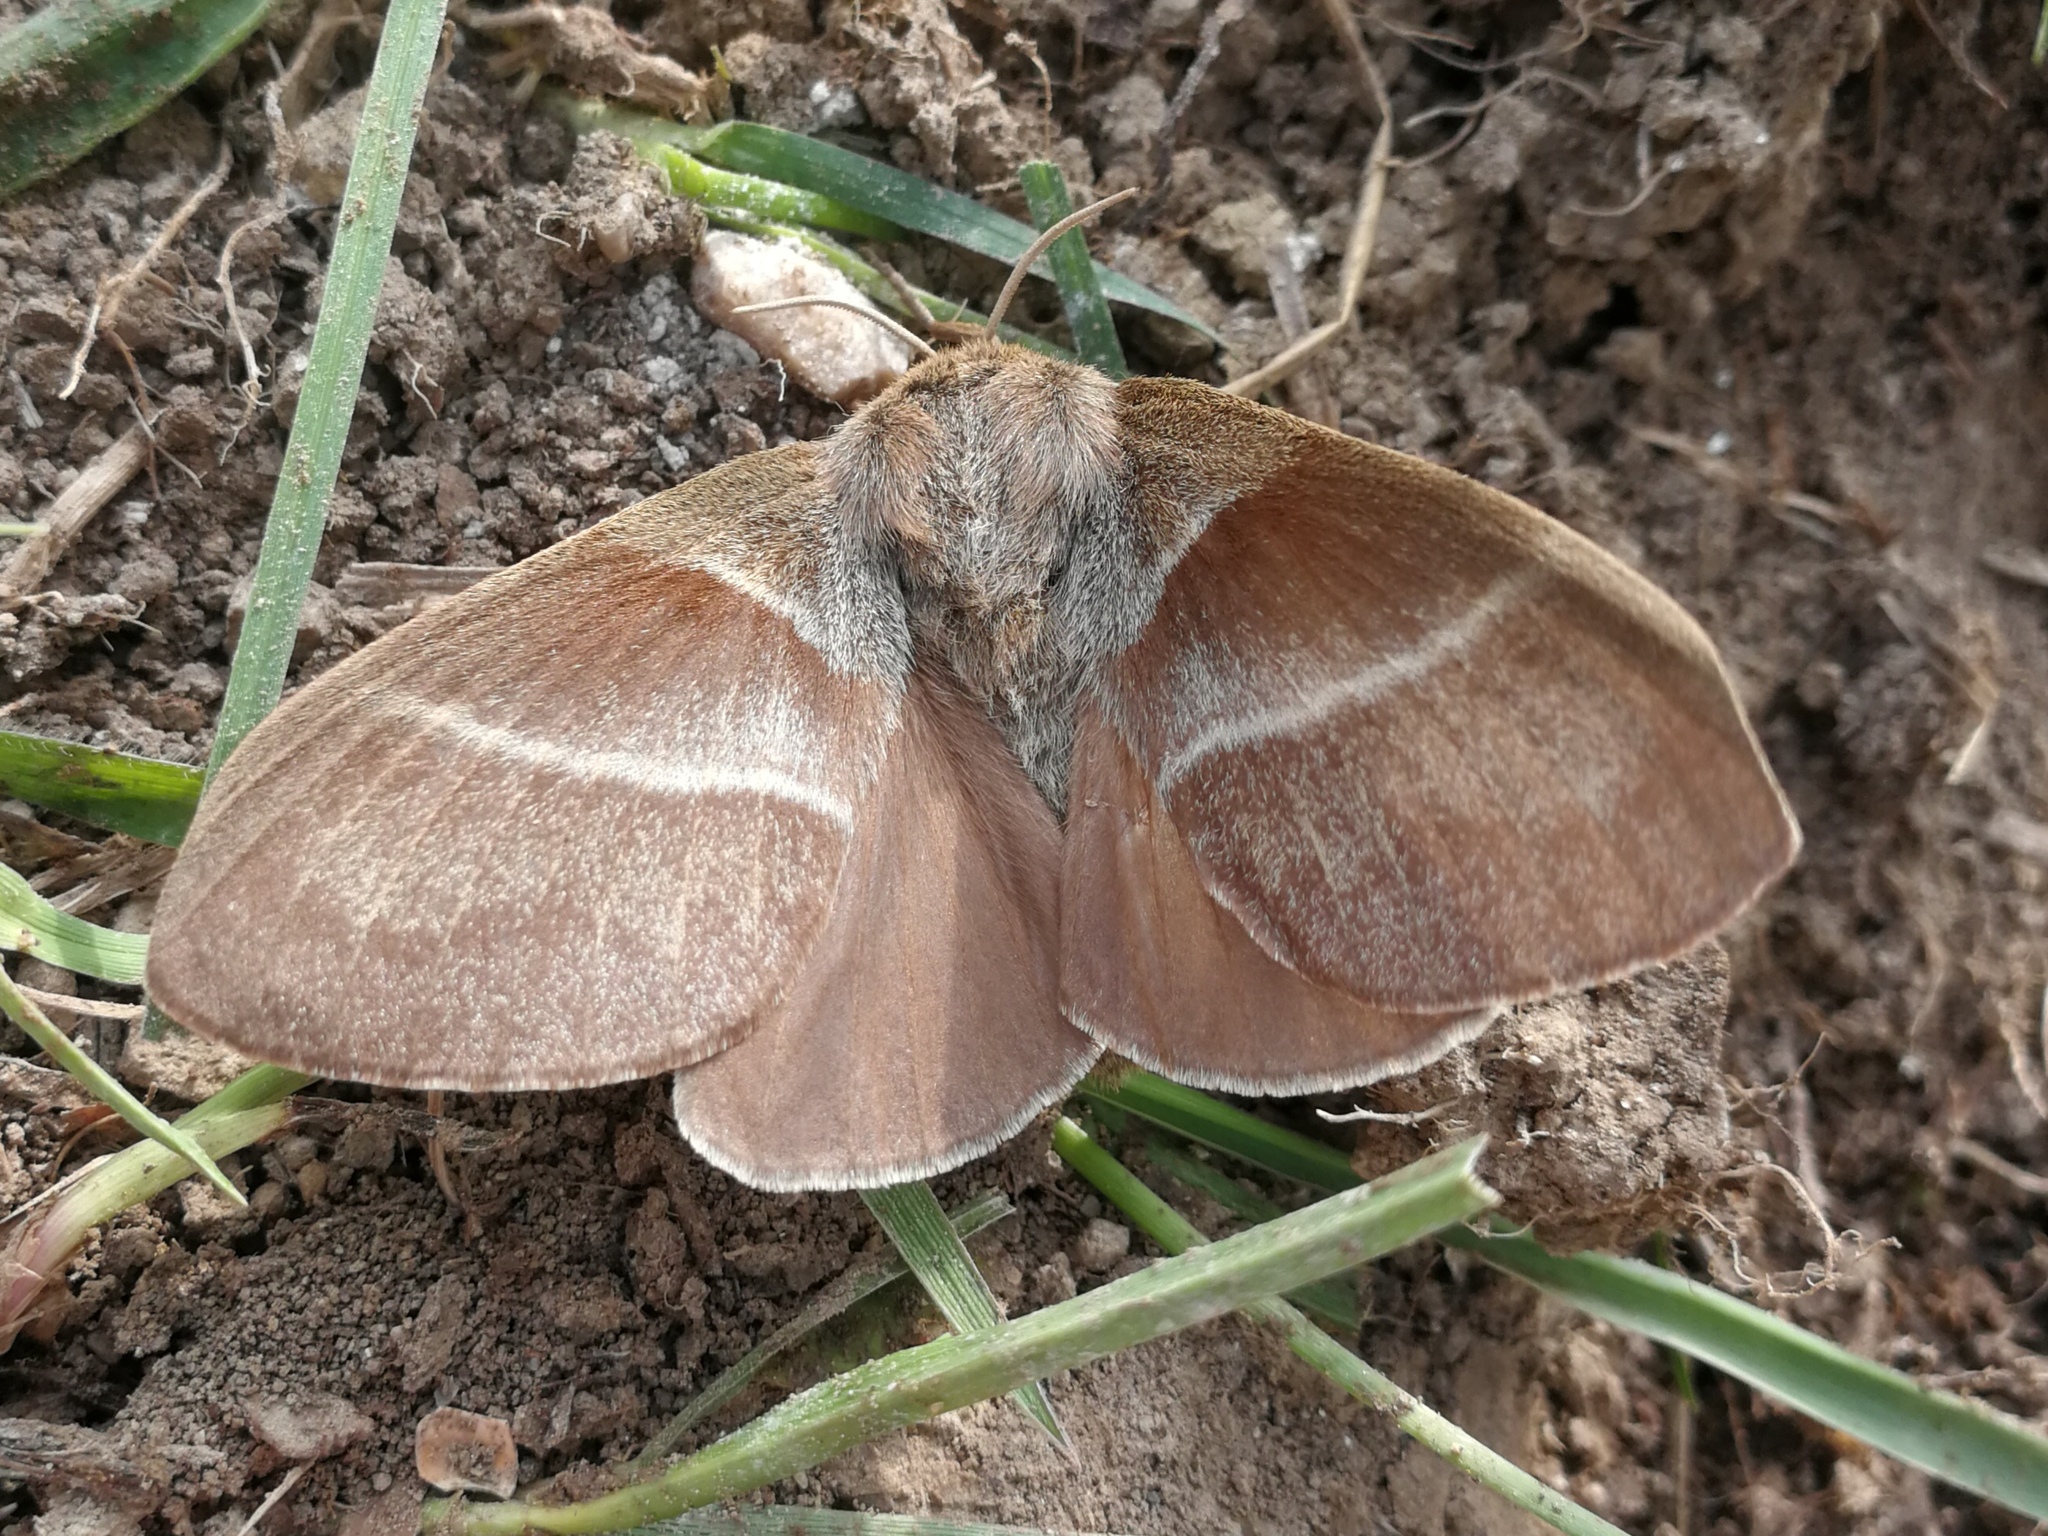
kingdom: Animalia
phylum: Arthropoda
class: Insecta
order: Lepidoptera
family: Lasiocampidae
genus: Macrothylacia
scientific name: Macrothylacia rubi
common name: Fox moth
